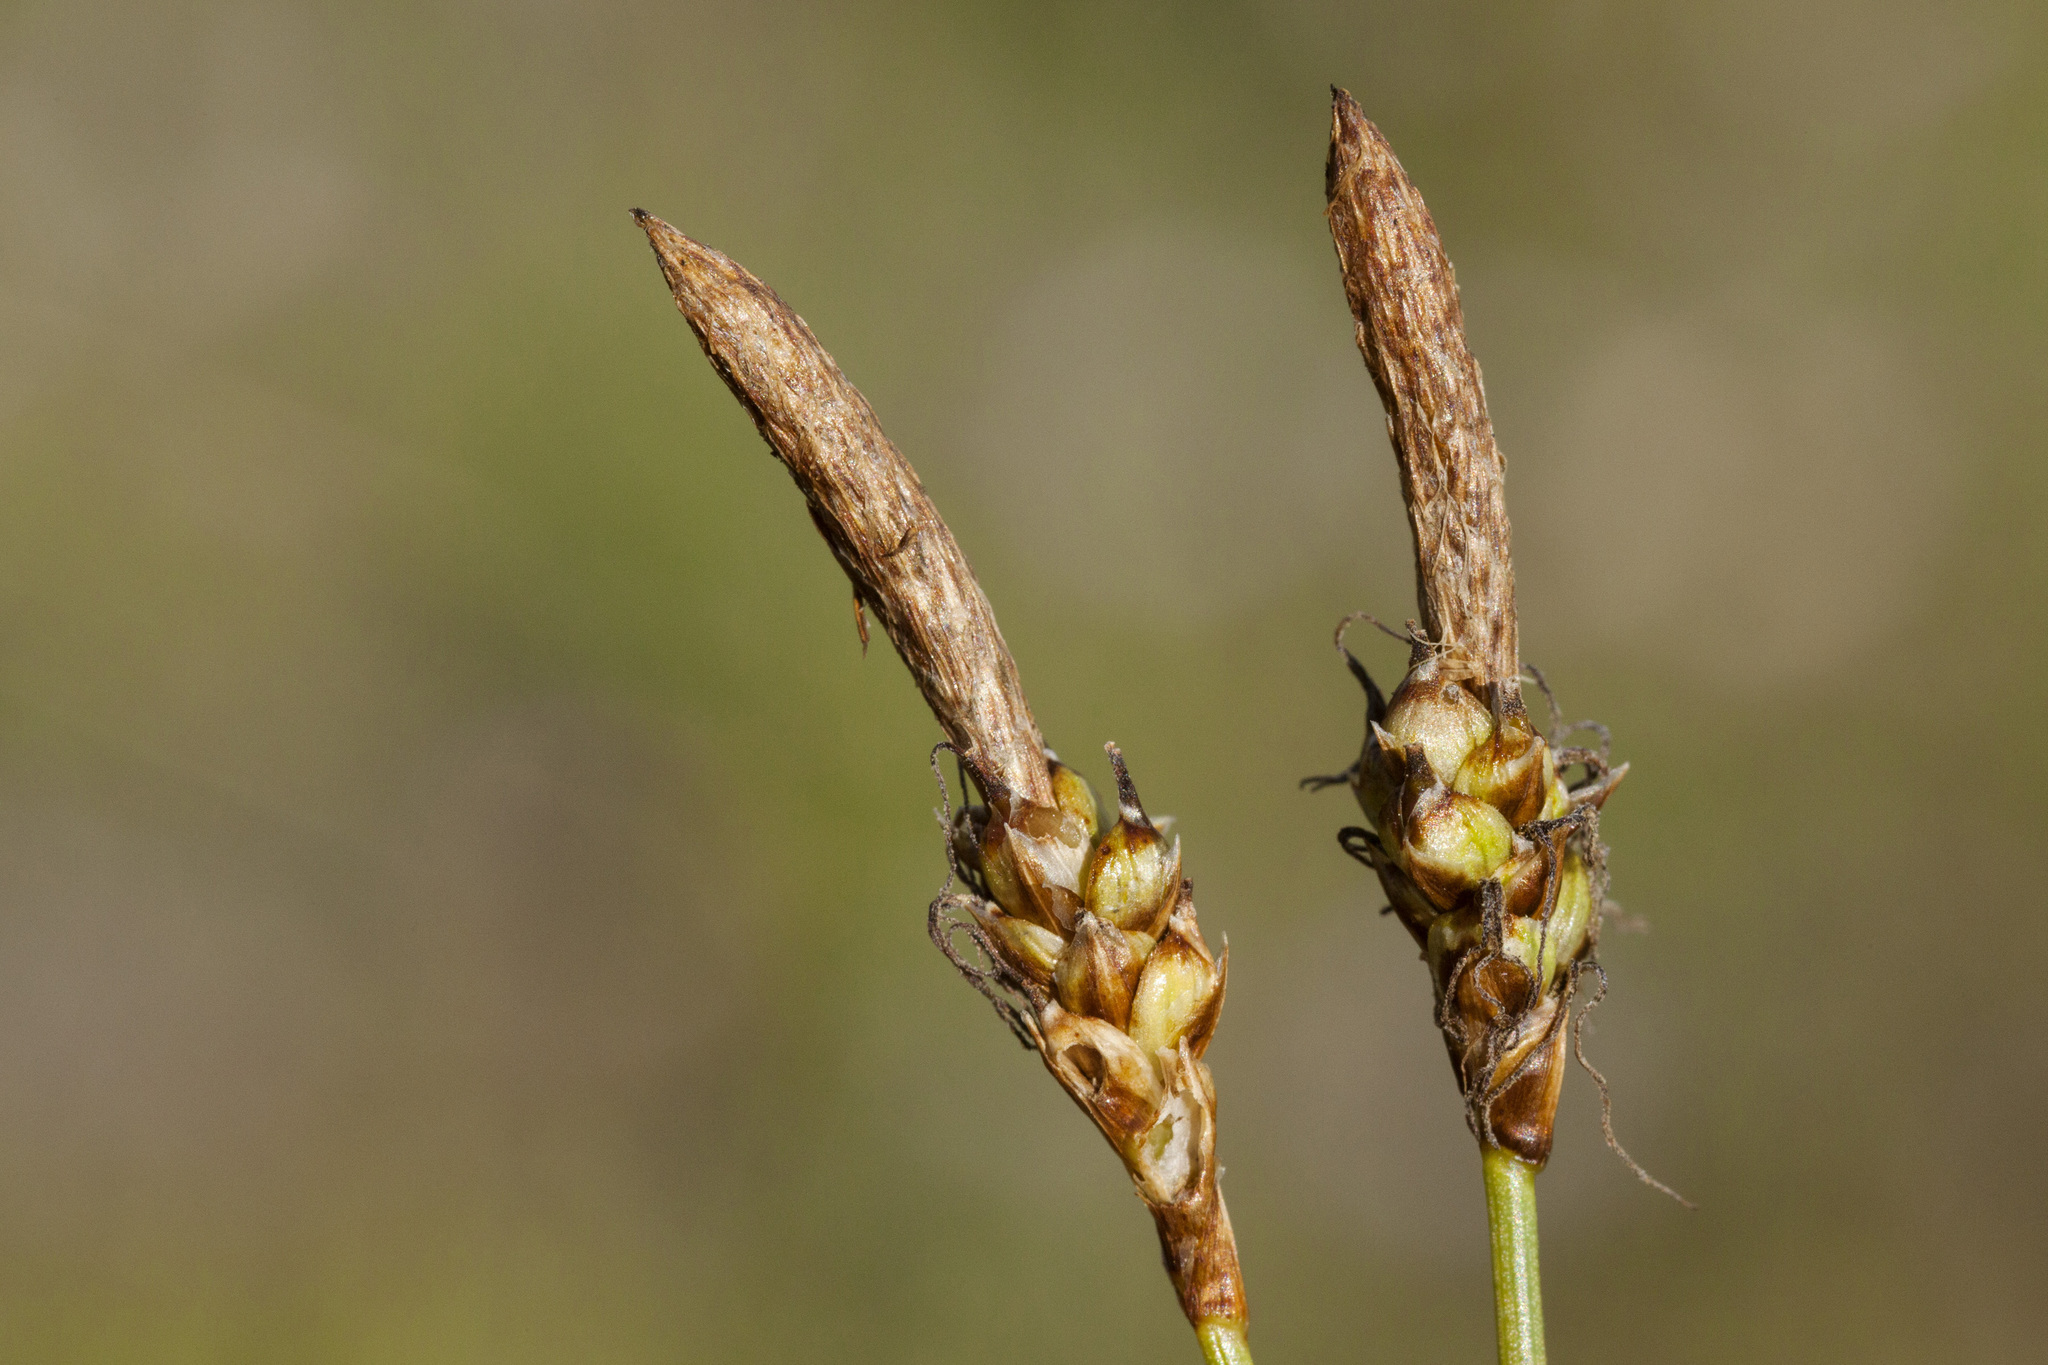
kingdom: Plantae
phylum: Tracheophyta
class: Liliopsida
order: Poales
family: Cyperaceae
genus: Carex
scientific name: Carex oreocharis
